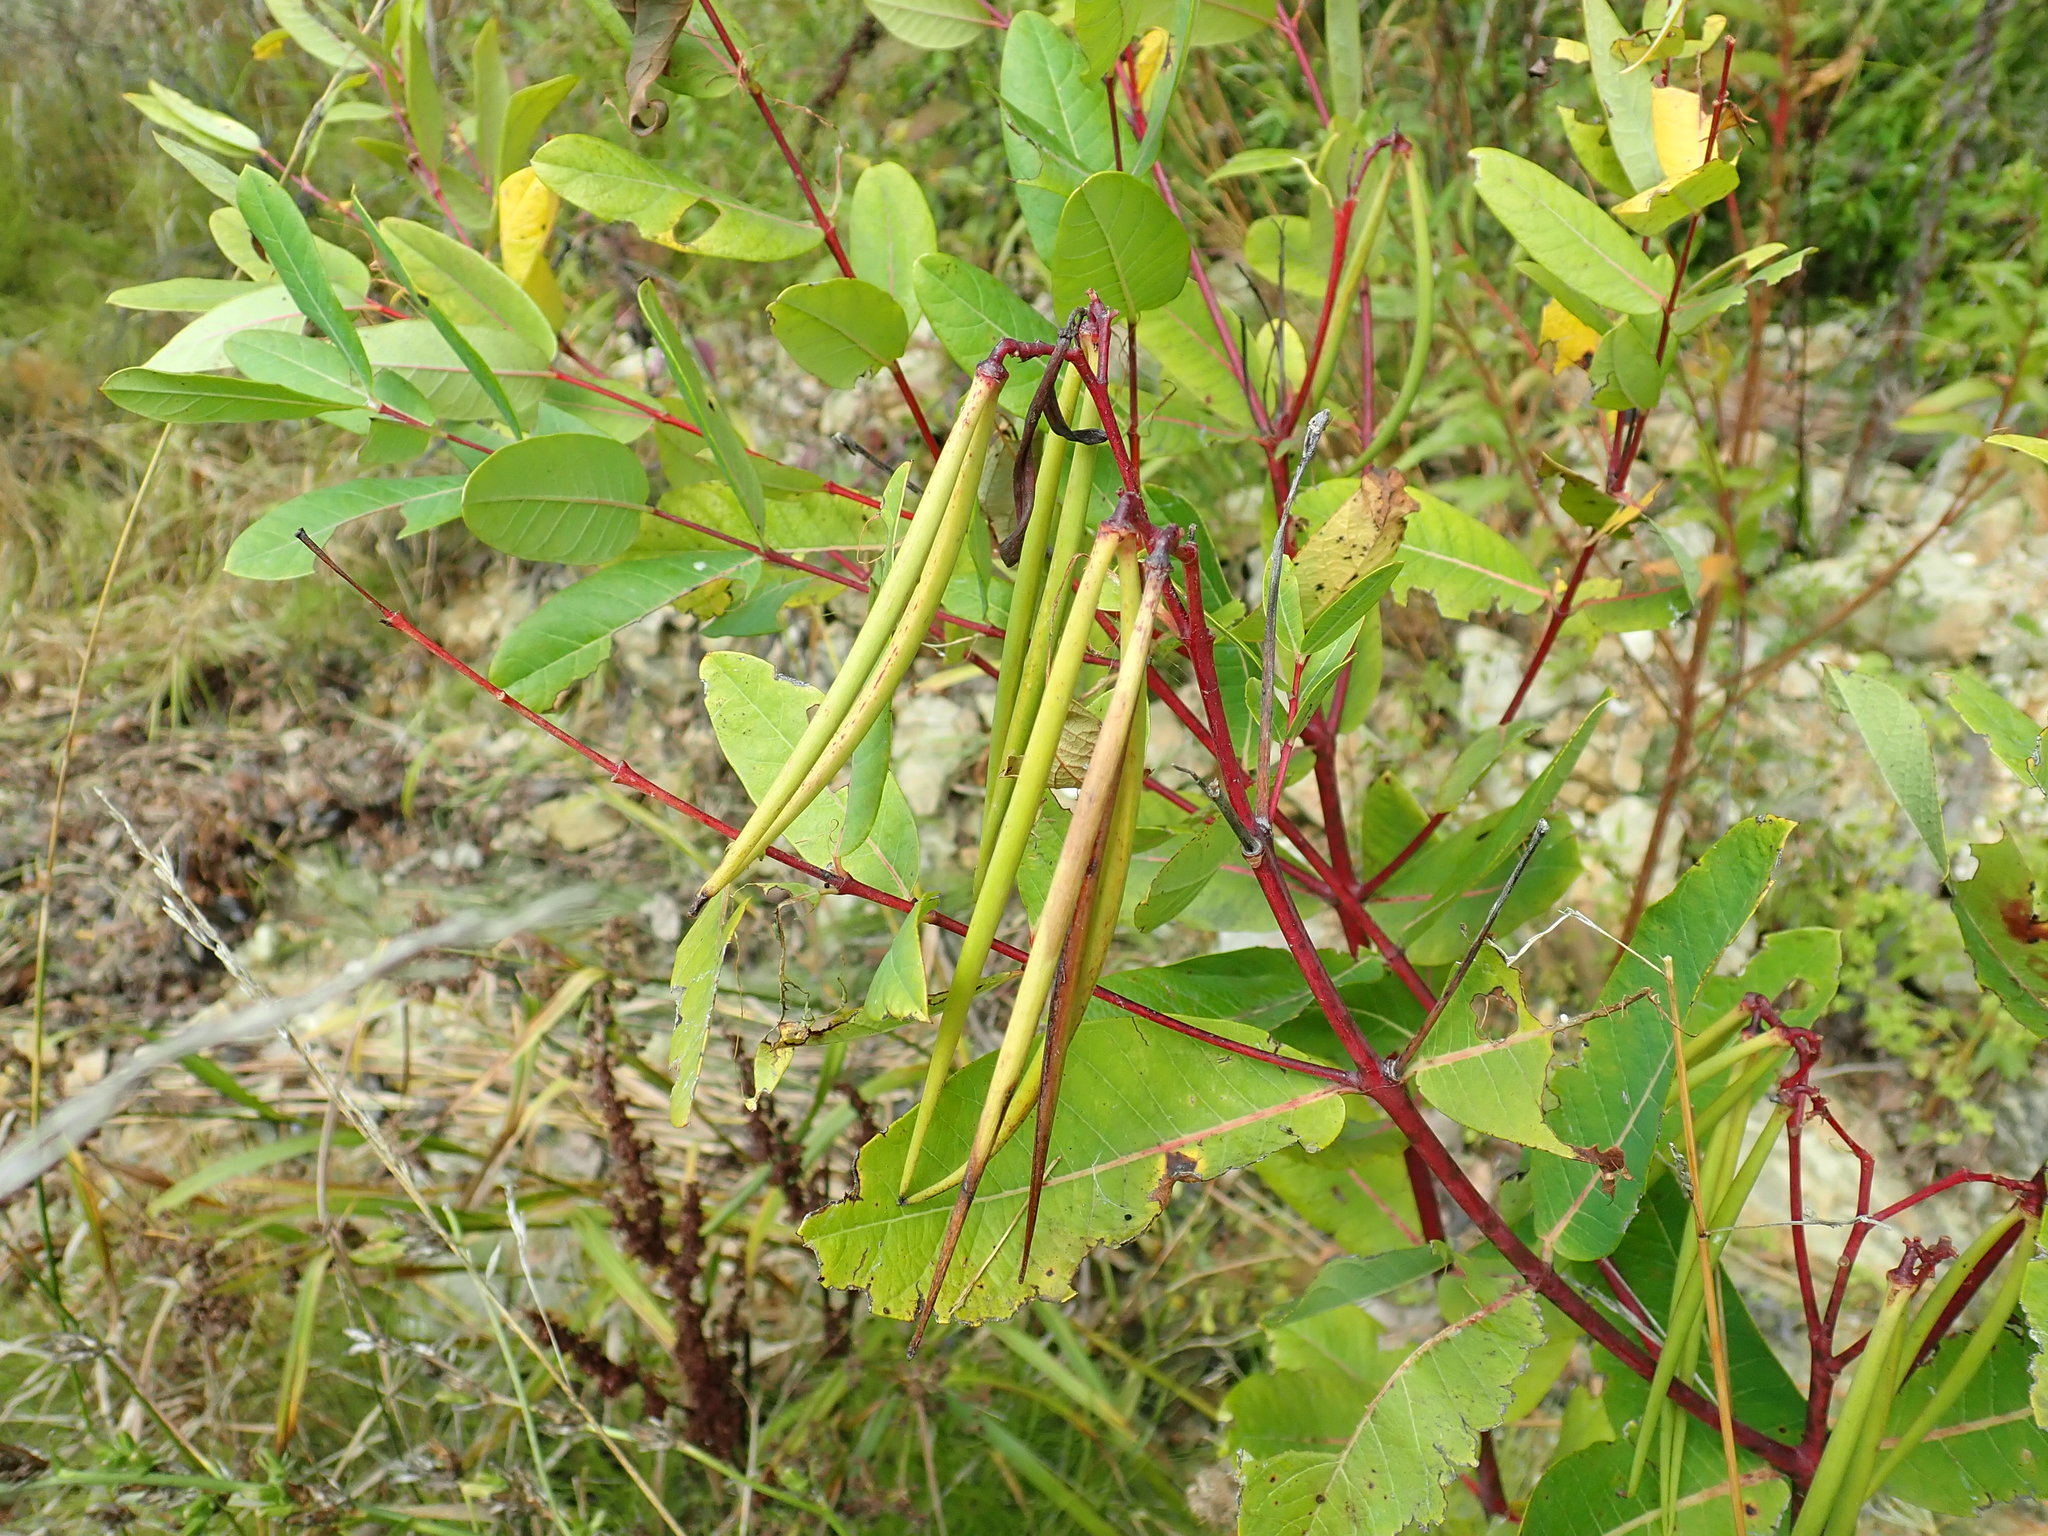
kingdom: Plantae
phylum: Tracheophyta
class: Magnoliopsida
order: Gentianales
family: Apocynaceae
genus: Apocynum
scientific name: Apocynum cannabinum
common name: Hemp dogbane
